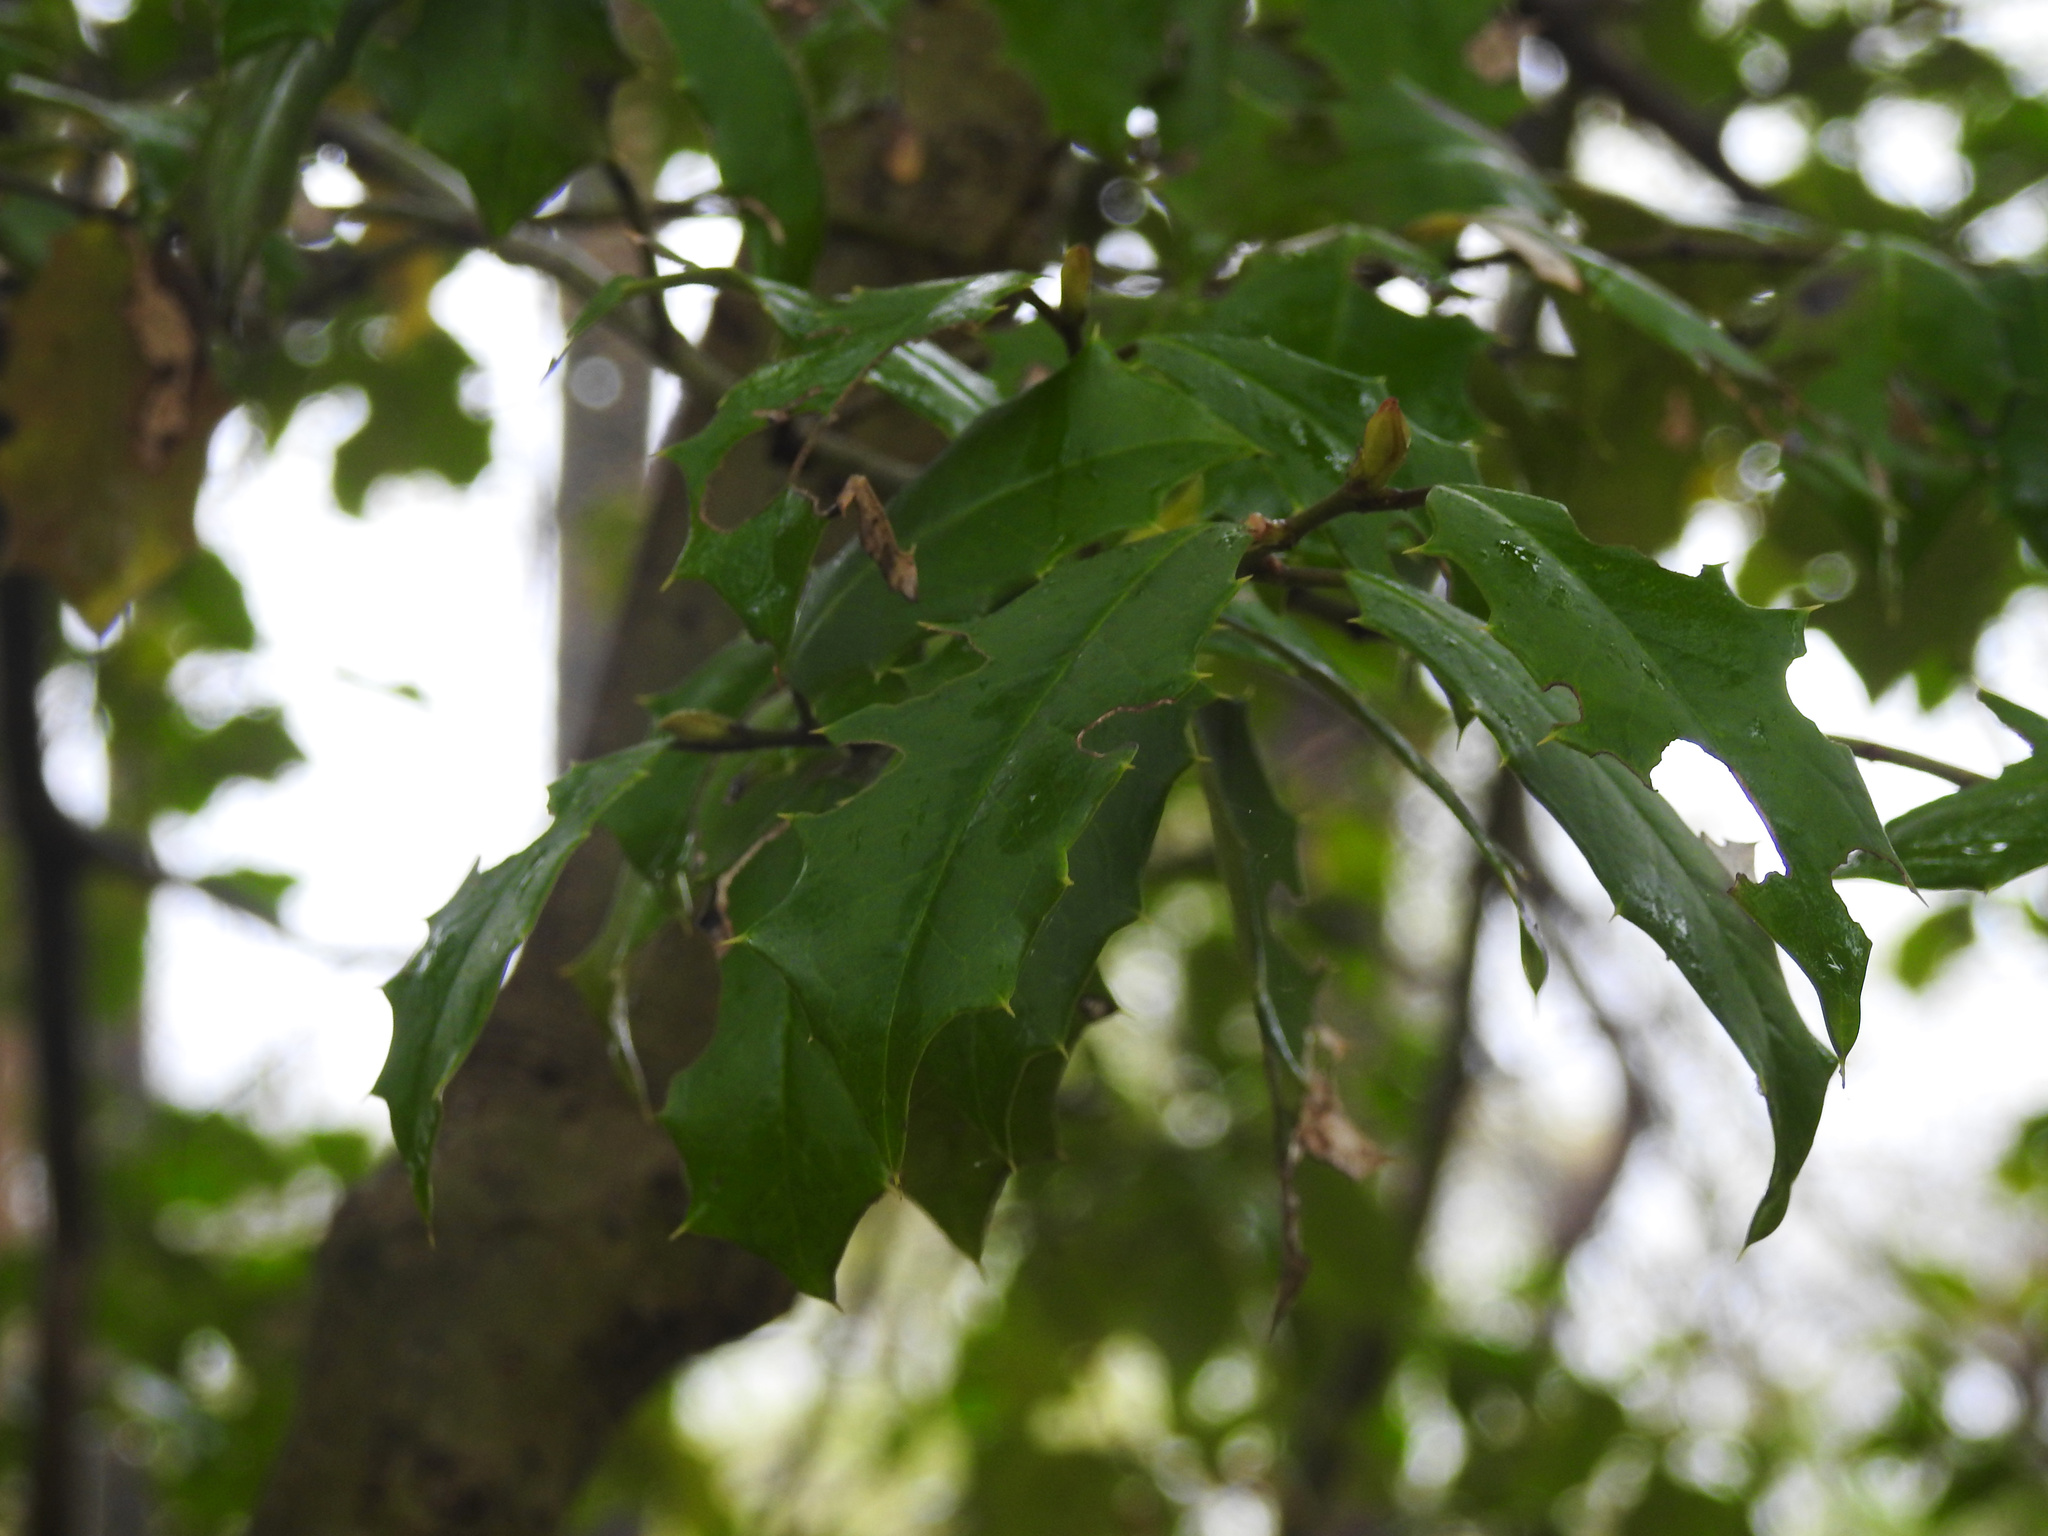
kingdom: Plantae
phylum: Tracheophyta
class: Magnoliopsida
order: Aquifoliales
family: Aquifoliaceae
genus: Ilex
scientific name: Ilex opaca
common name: American holly
